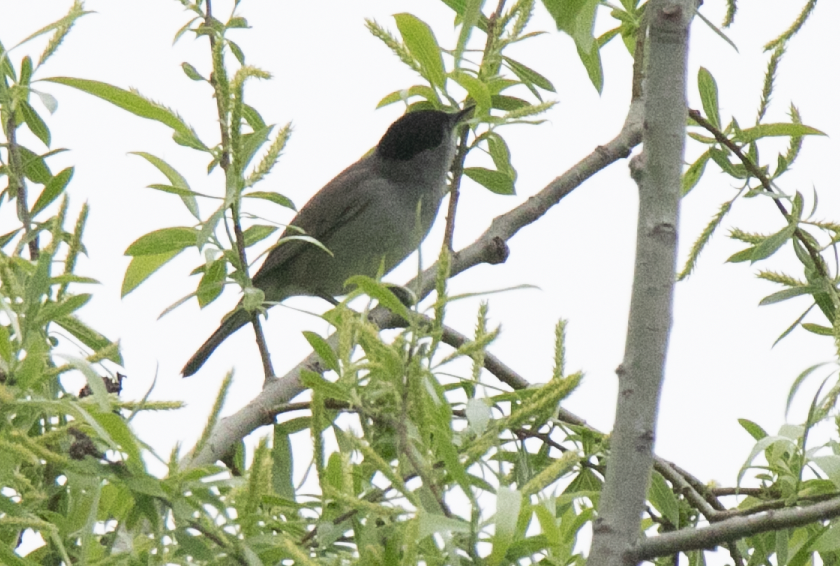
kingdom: Animalia
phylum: Chordata
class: Aves
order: Passeriformes
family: Sylviidae
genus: Sylvia
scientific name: Sylvia atricapilla
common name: Eurasian blackcap
